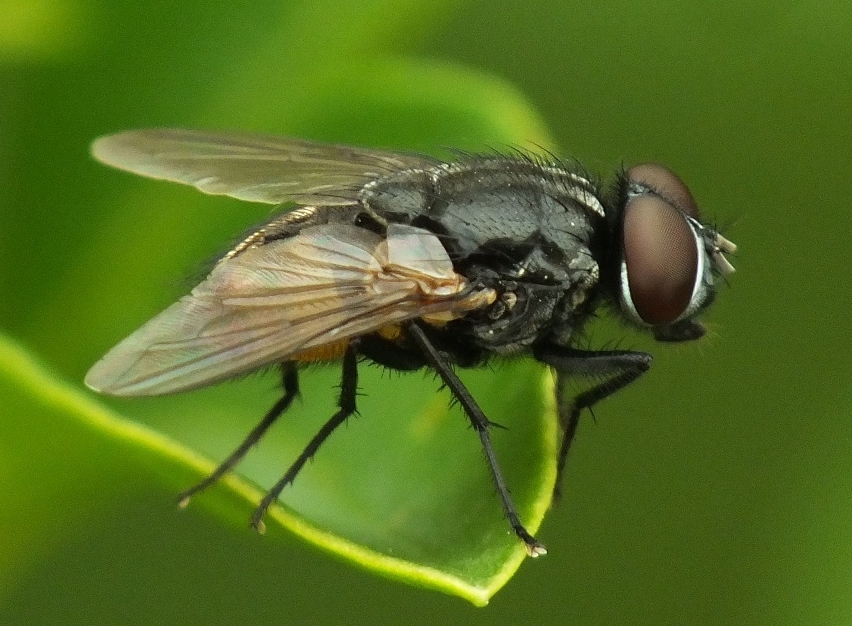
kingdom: Animalia
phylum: Arthropoda
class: Insecta
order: Diptera
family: Muscidae
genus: Musca
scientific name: Musca autumnalis
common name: Face fly
